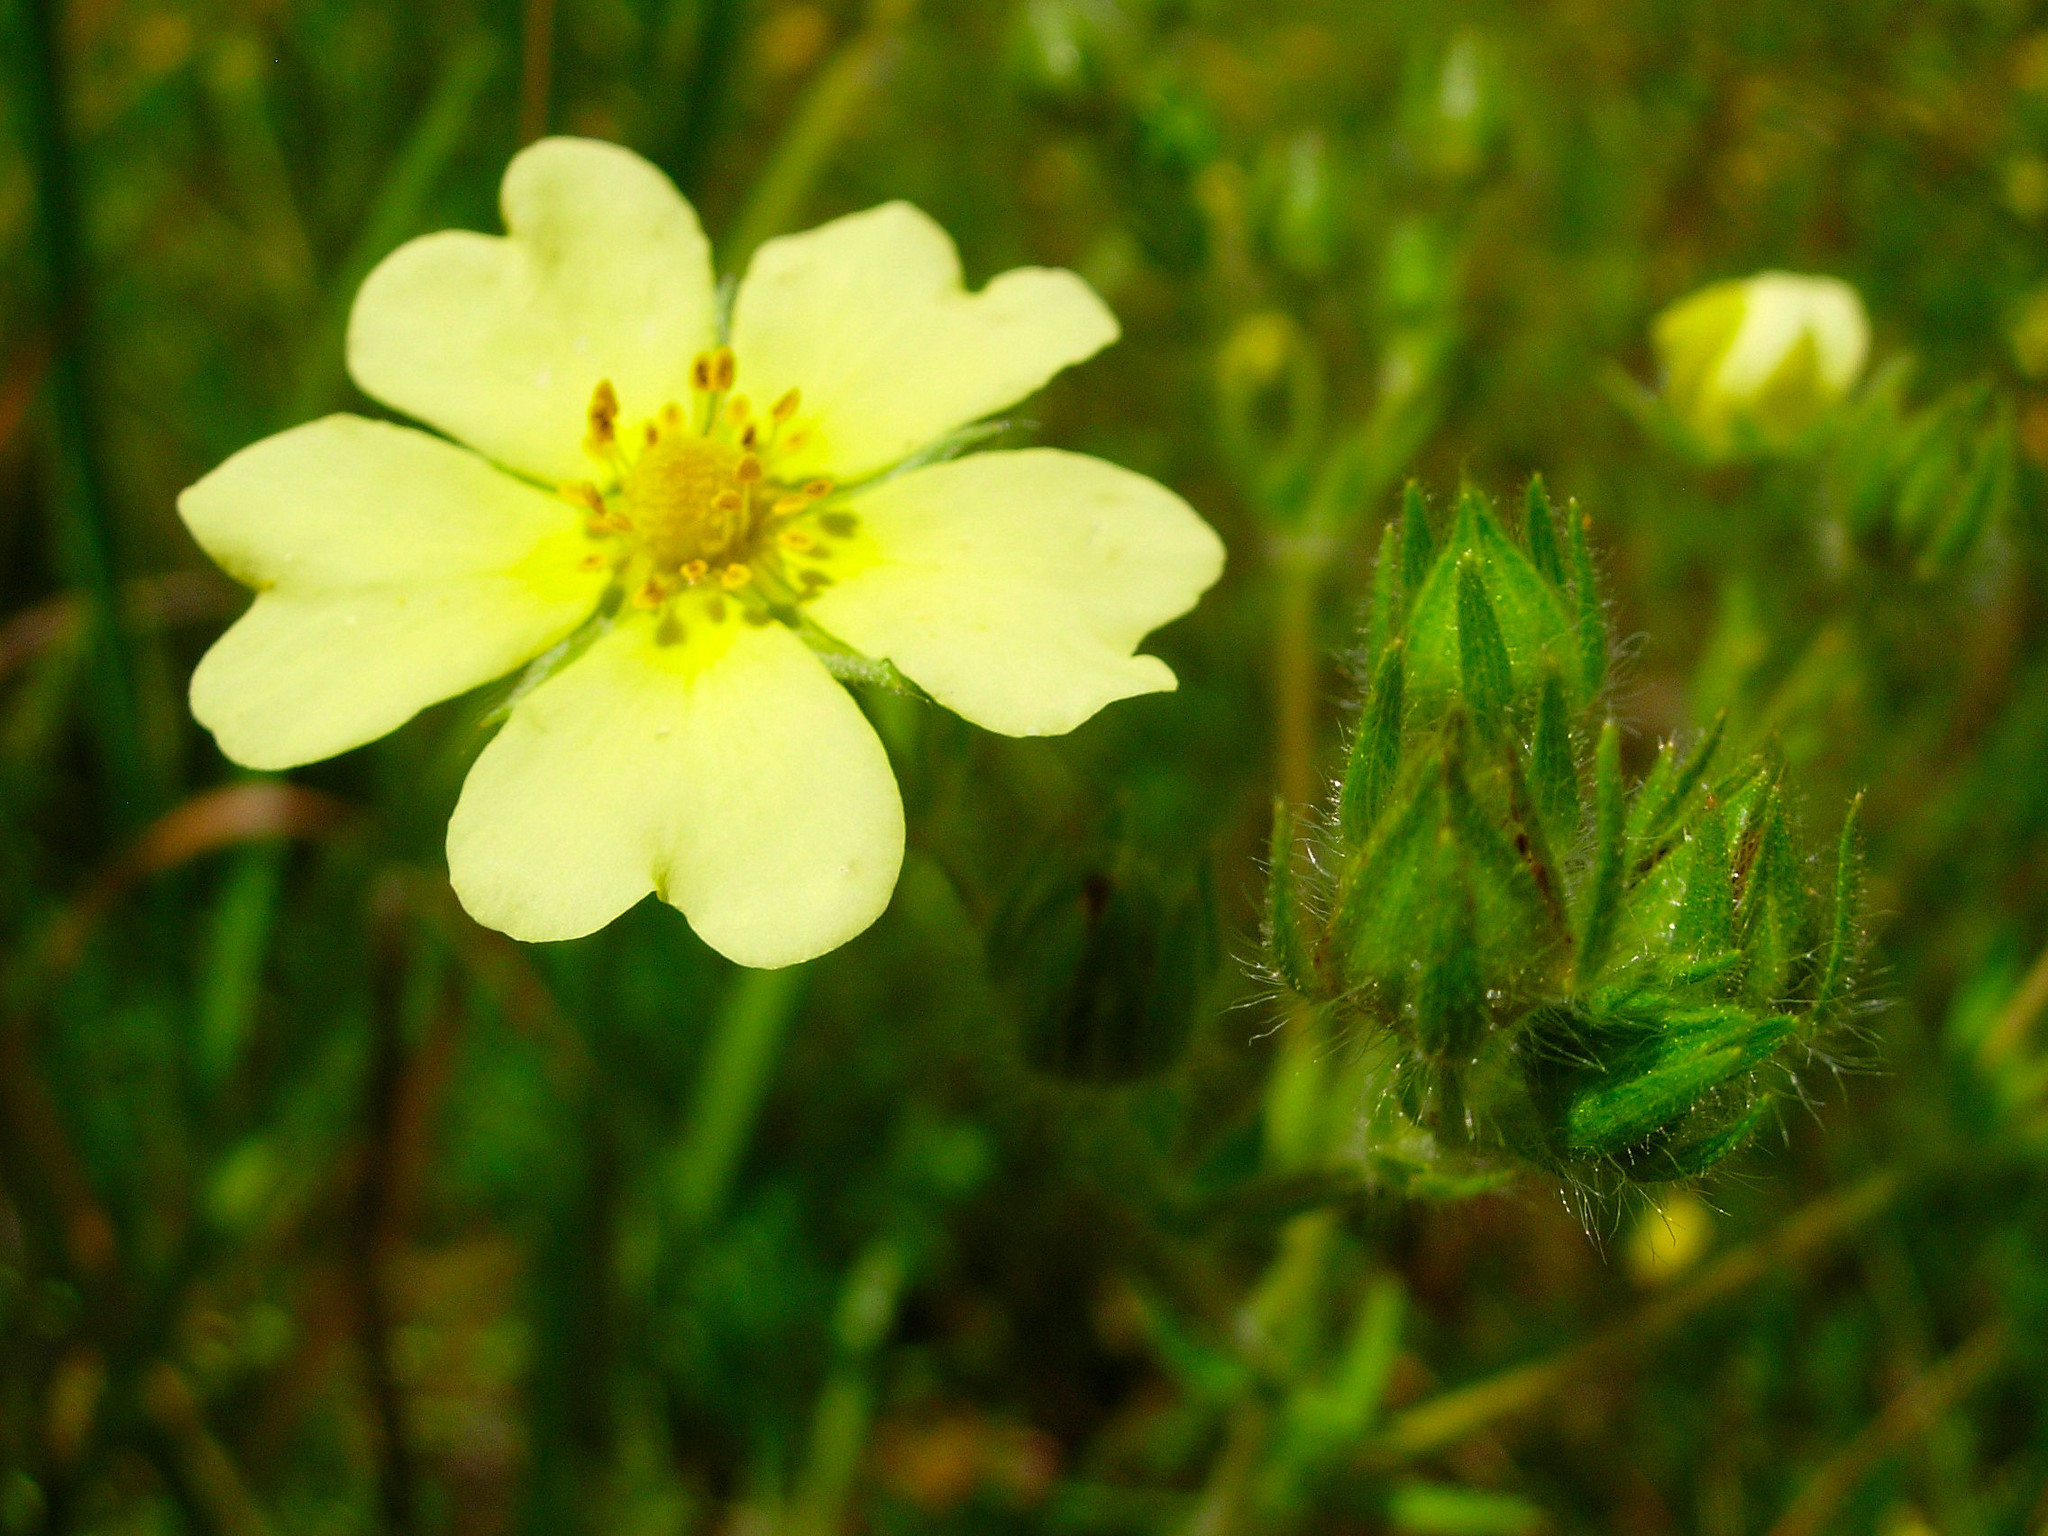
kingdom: Plantae
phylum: Tracheophyta
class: Magnoliopsida
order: Rosales
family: Rosaceae
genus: Potentilla
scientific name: Potentilla recta
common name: Sulphur cinquefoil
